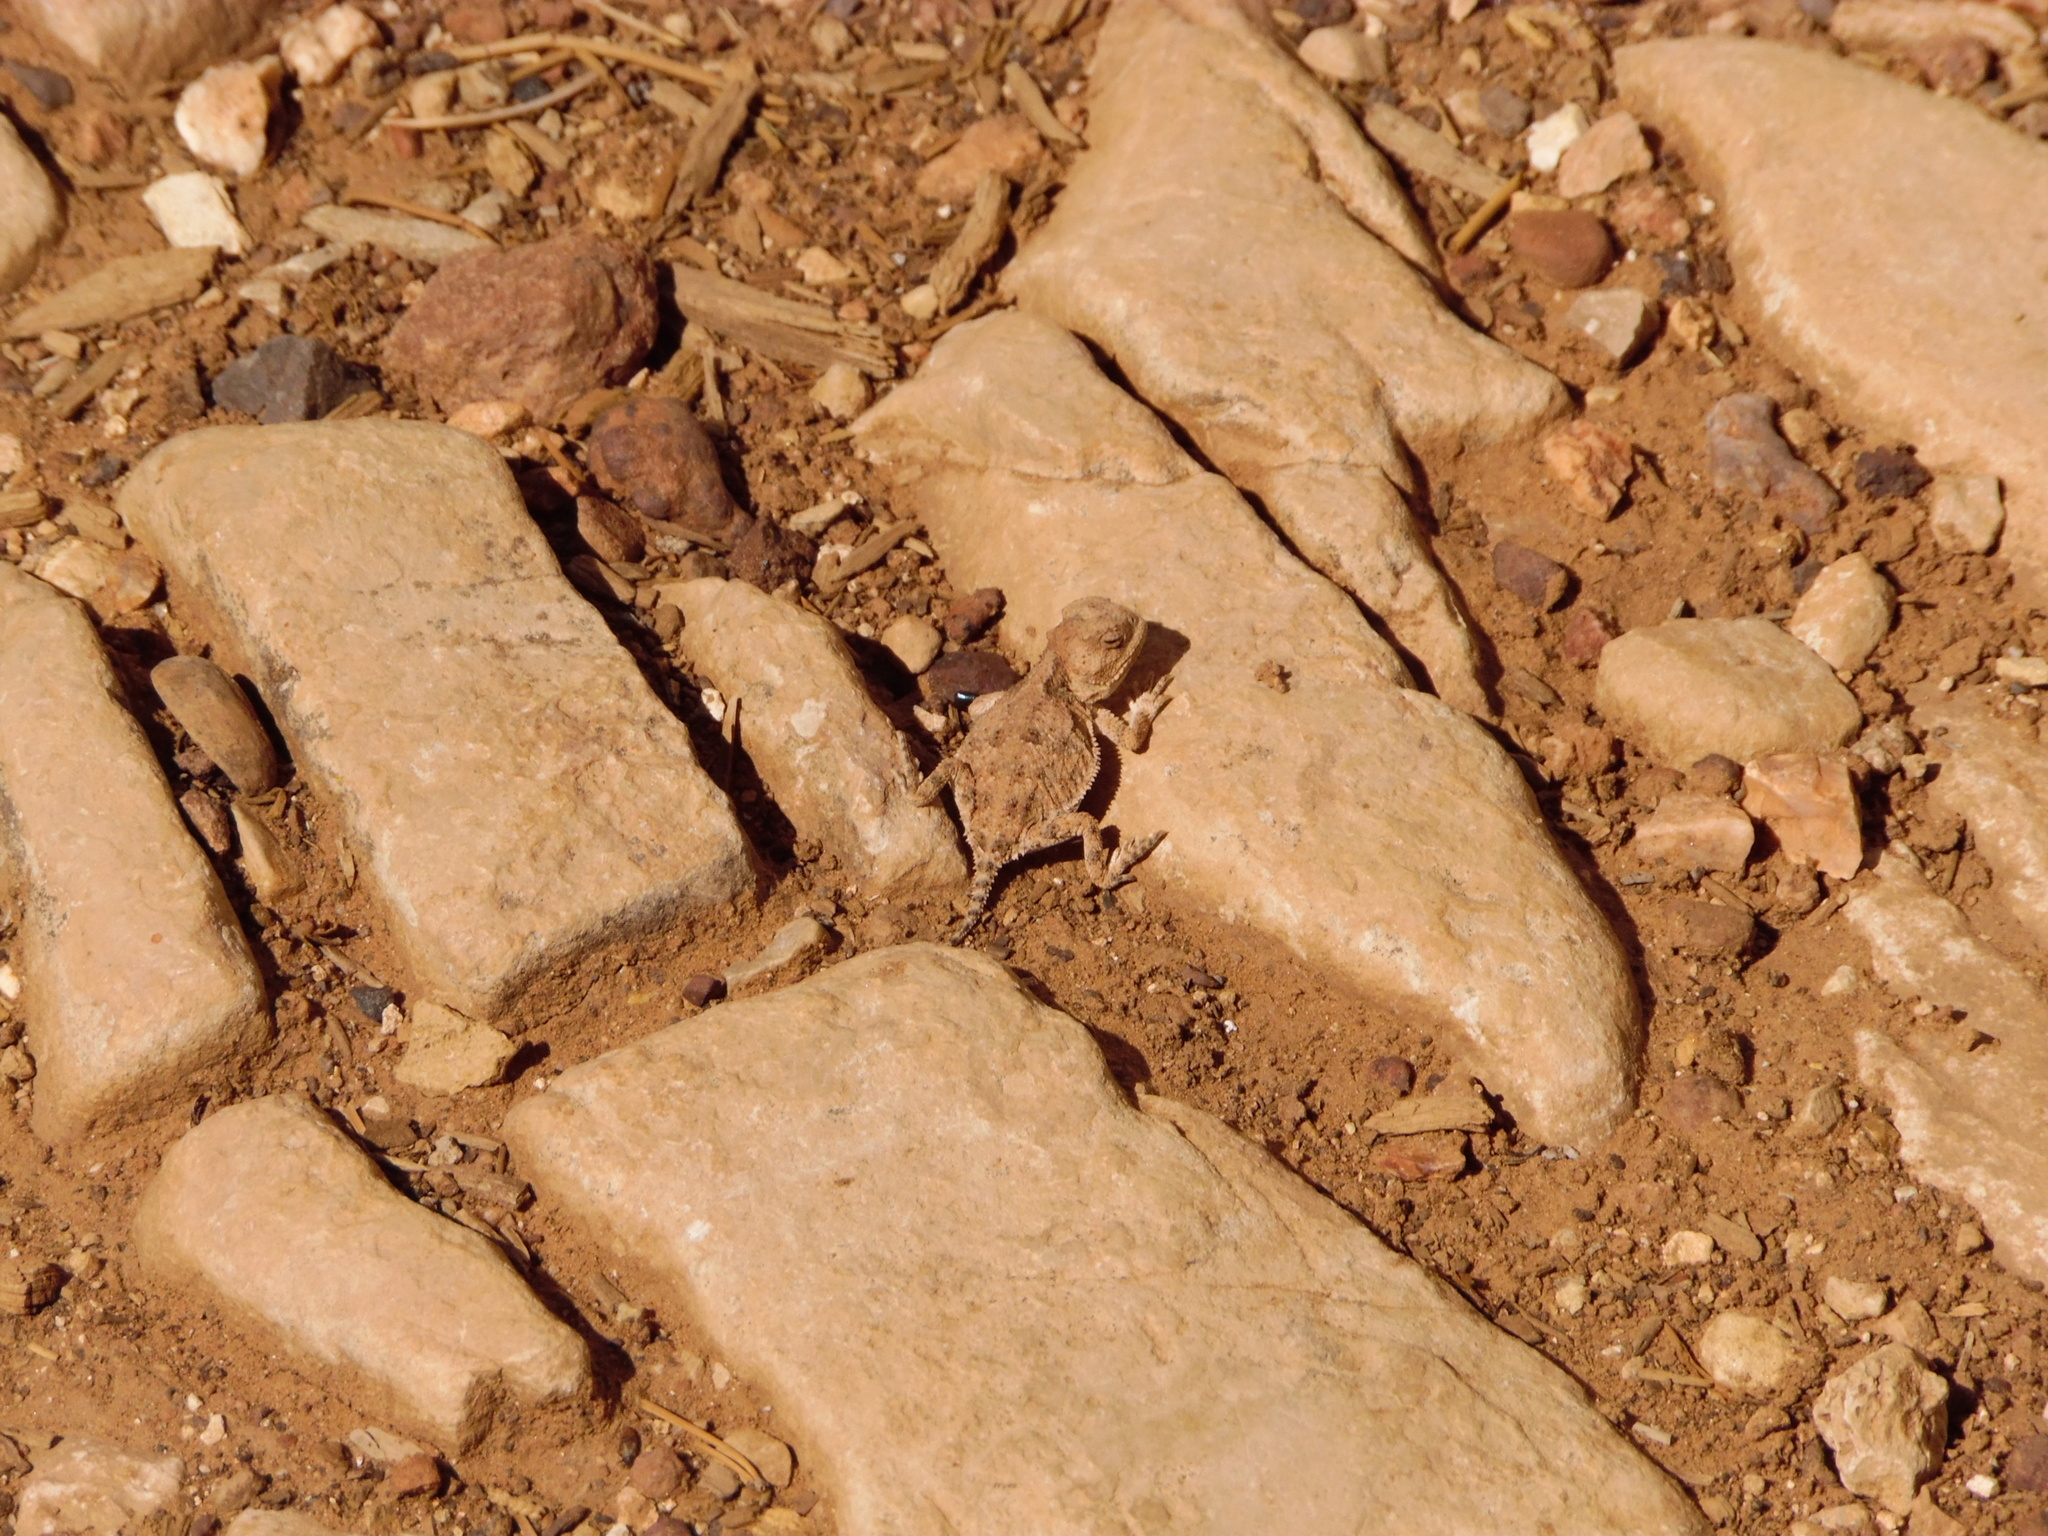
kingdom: Animalia
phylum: Chordata
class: Squamata
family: Phrynosomatidae
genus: Phrynosoma
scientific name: Phrynosoma hernandesi
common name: Greater short-horned lizard
